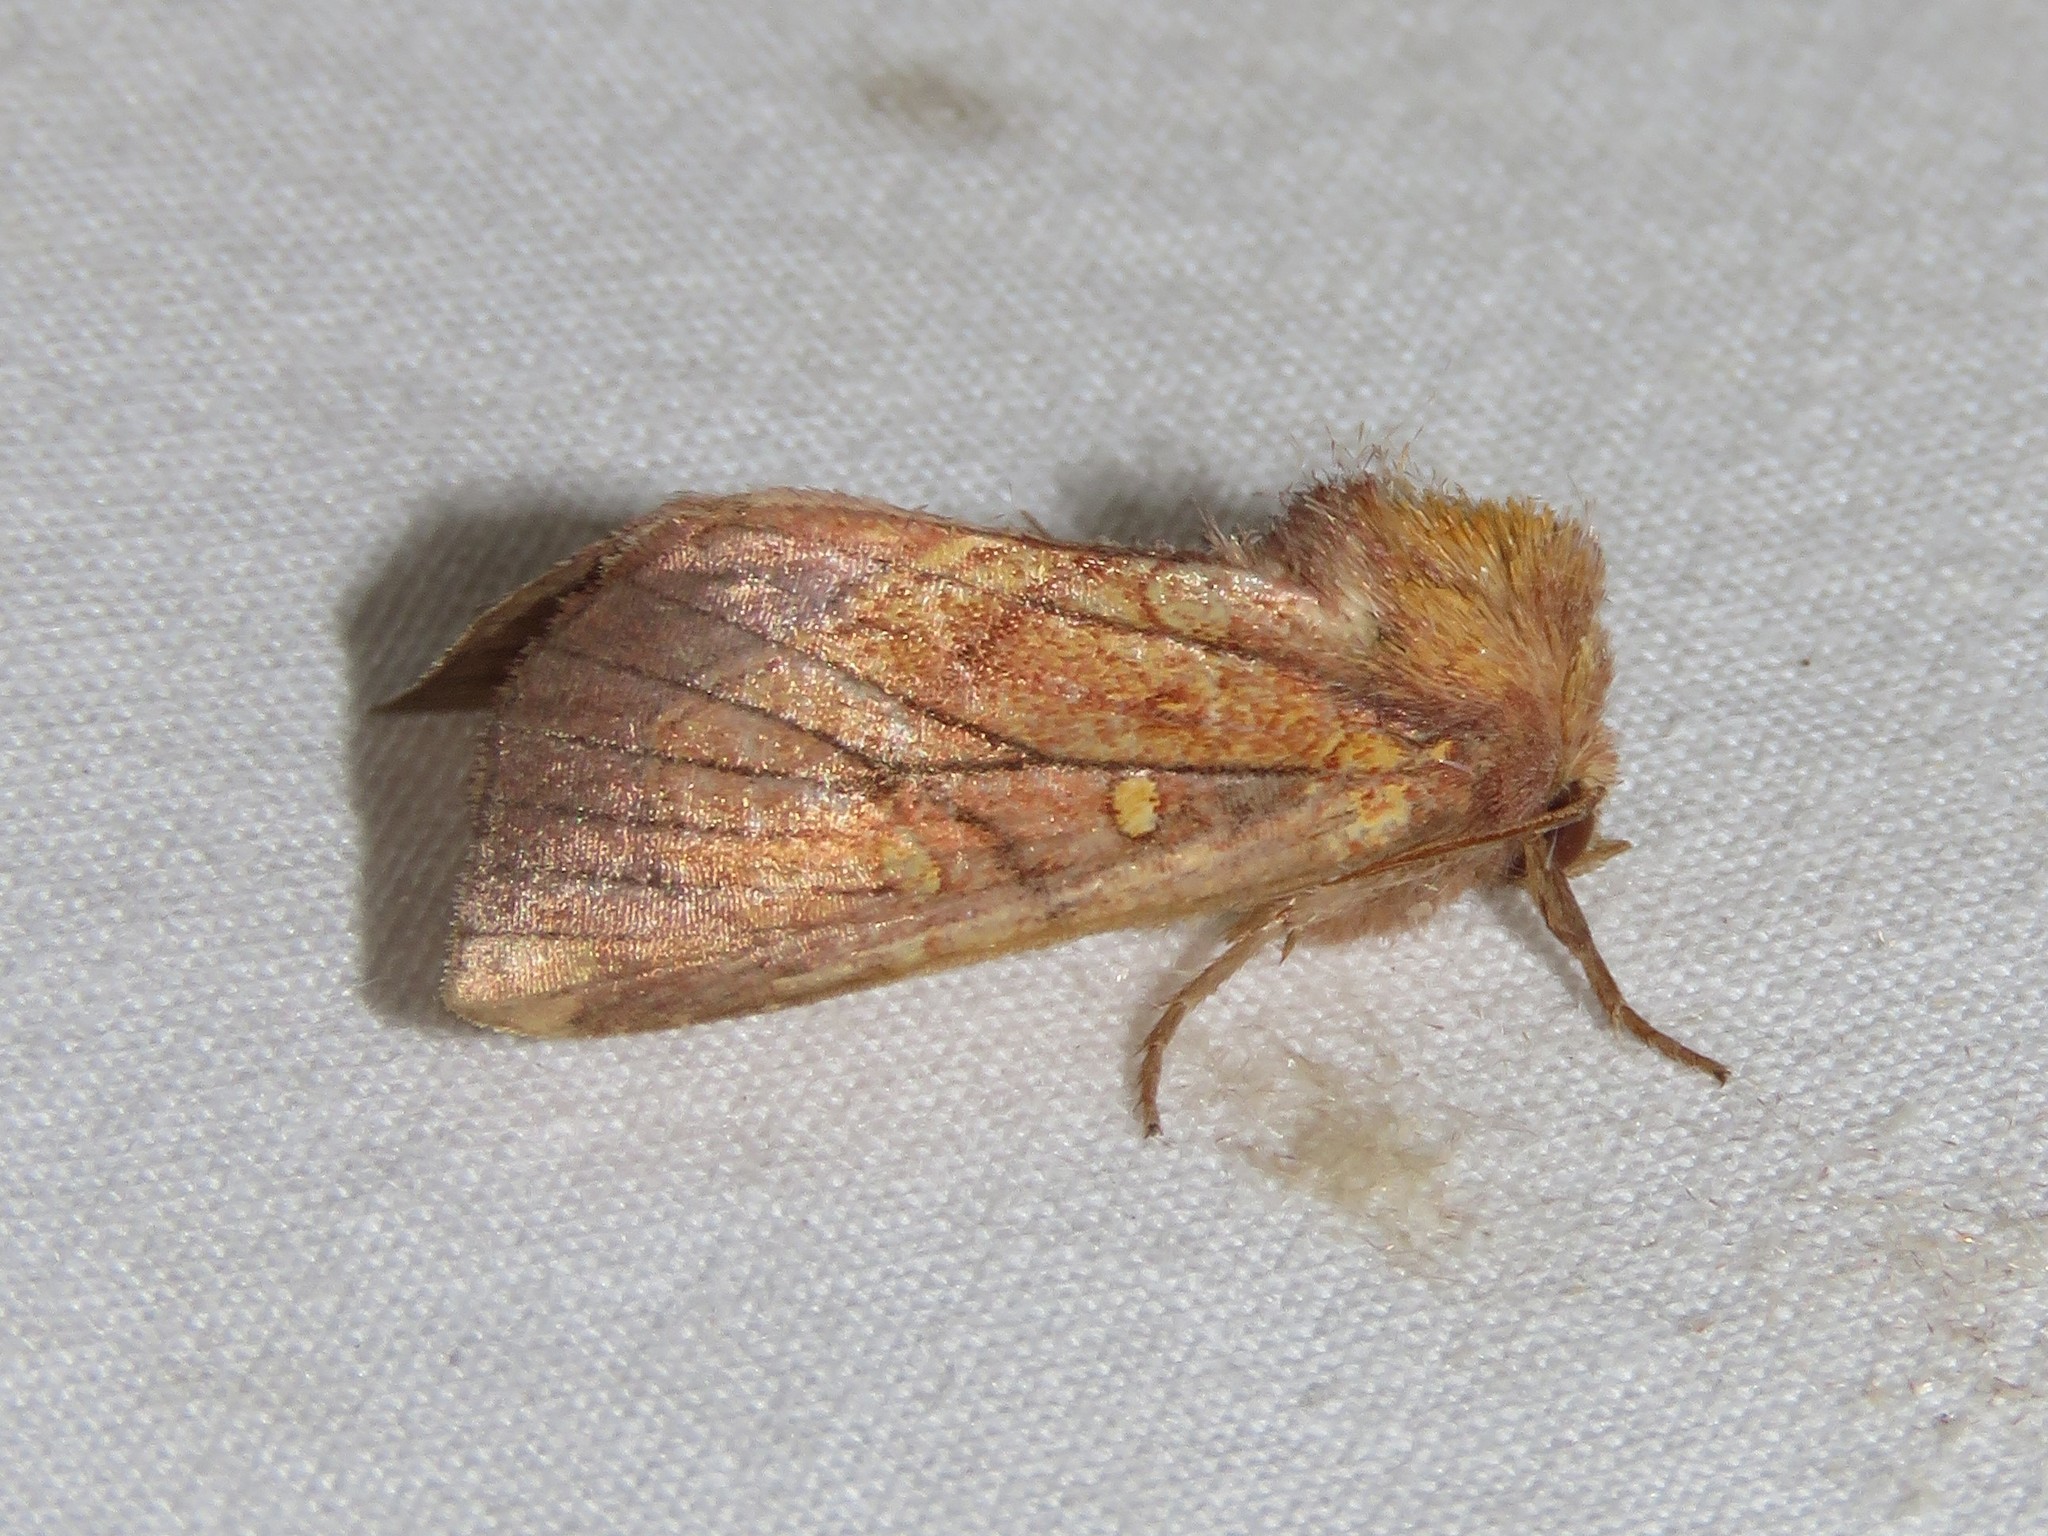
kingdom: Animalia
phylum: Arthropoda
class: Insecta
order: Lepidoptera
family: Noctuidae
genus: Papaipema
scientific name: Papaipema inquaesita
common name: Sensitive fern borer moth
